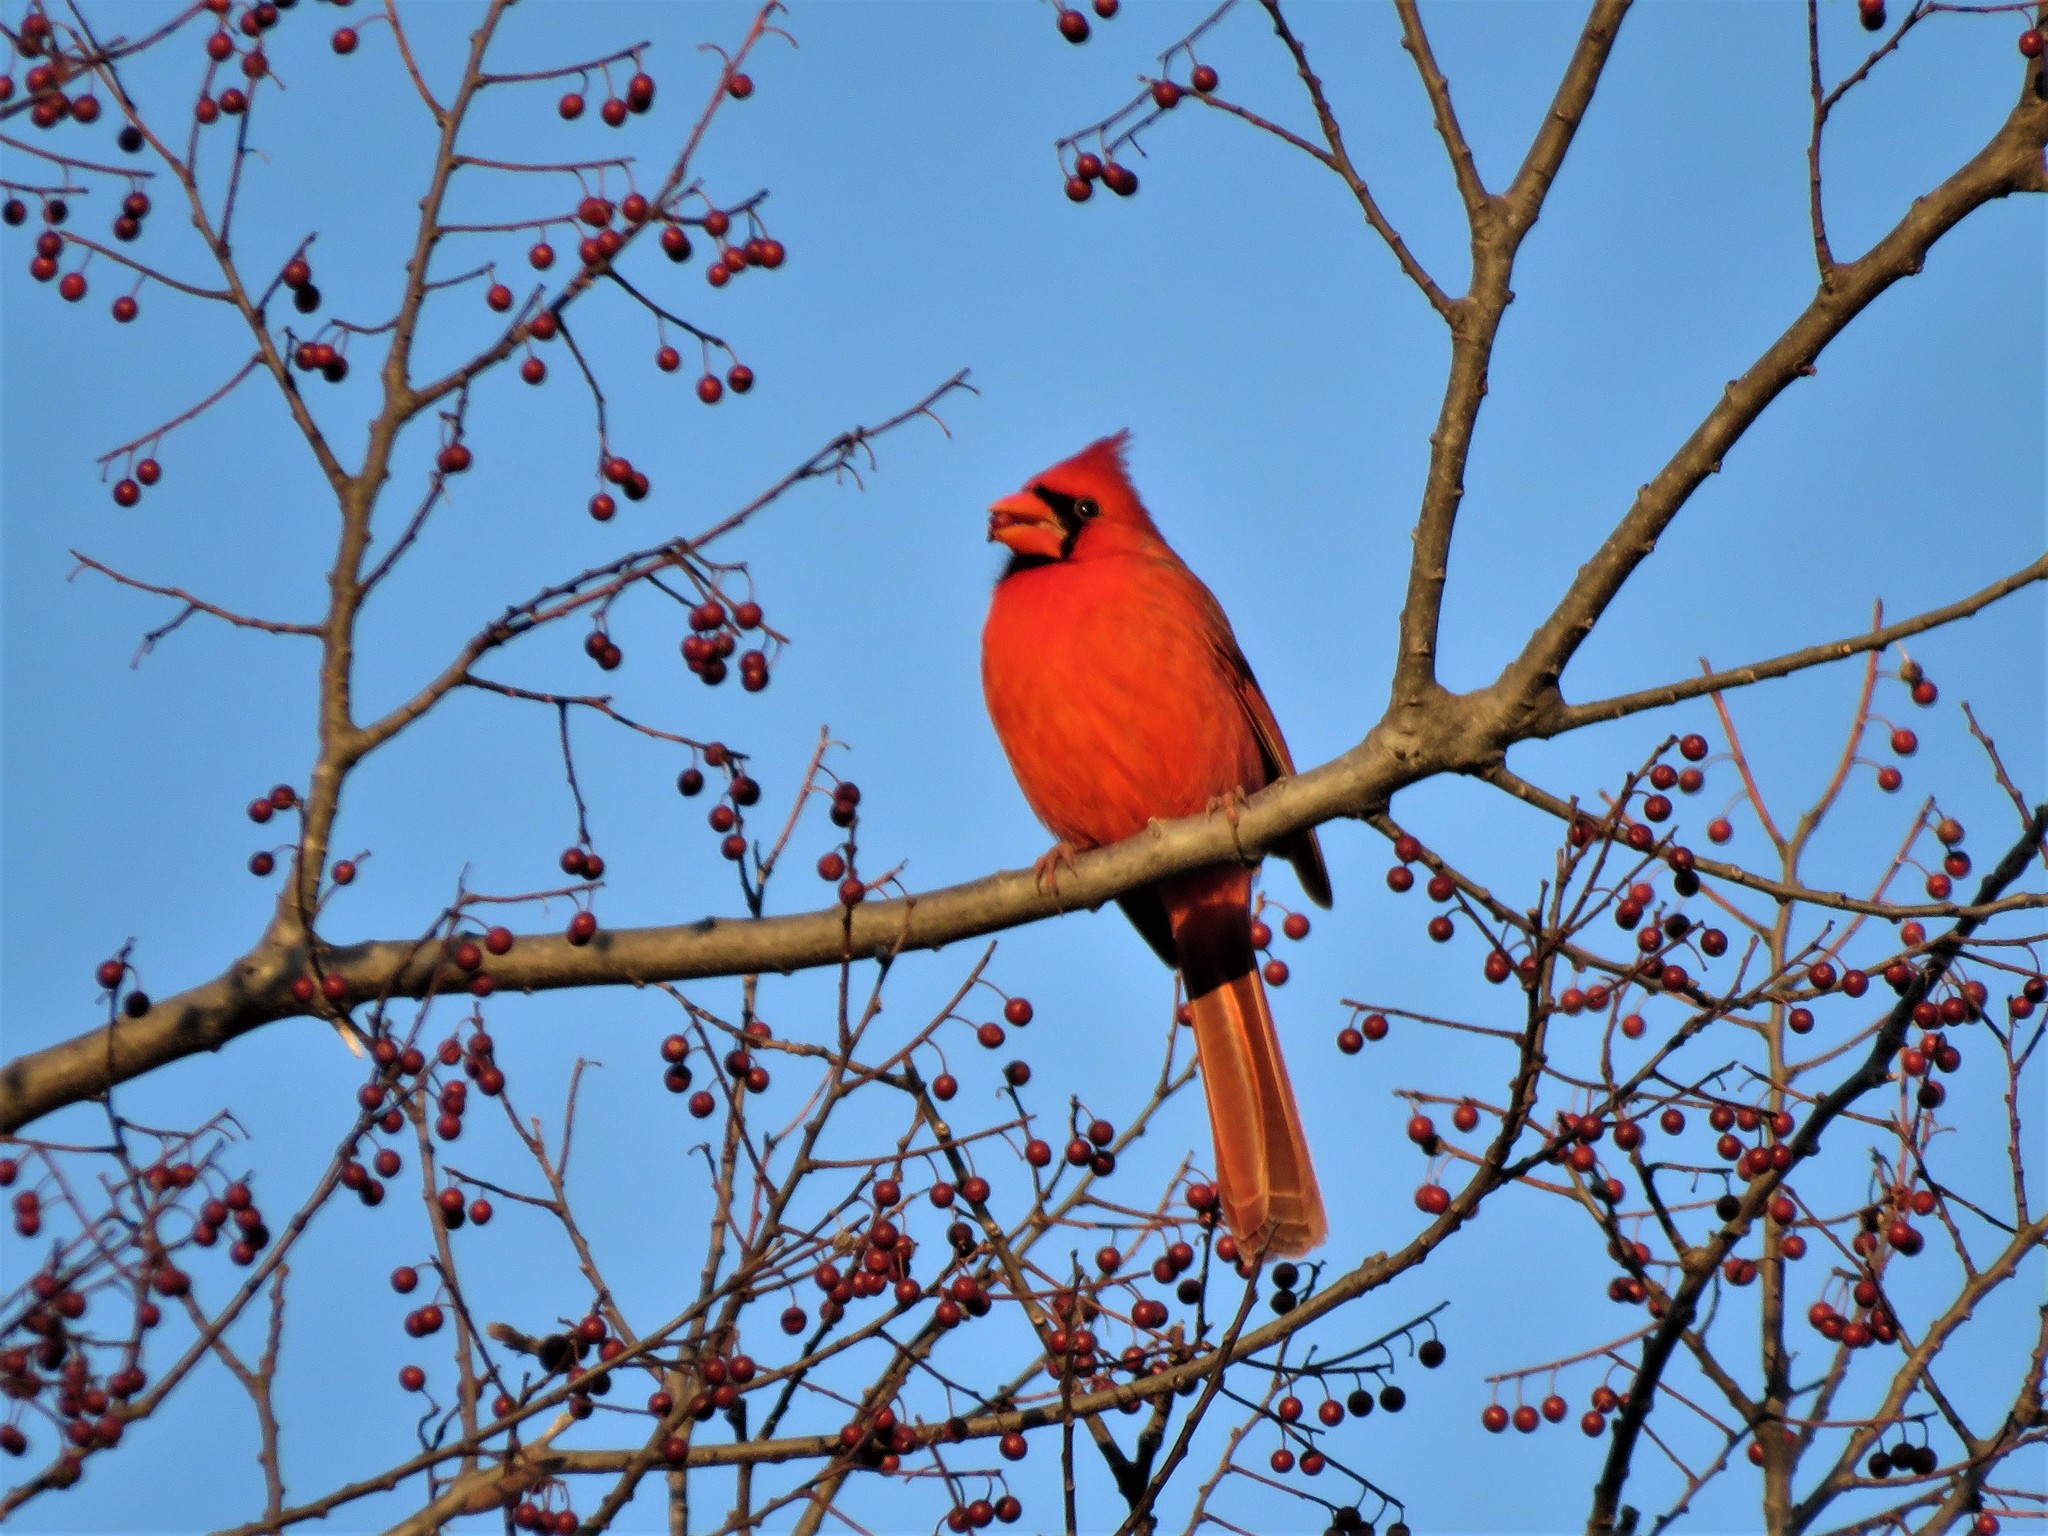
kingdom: Animalia
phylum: Chordata
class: Aves
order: Passeriformes
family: Cardinalidae
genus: Cardinalis
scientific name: Cardinalis cardinalis
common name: Northern cardinal
